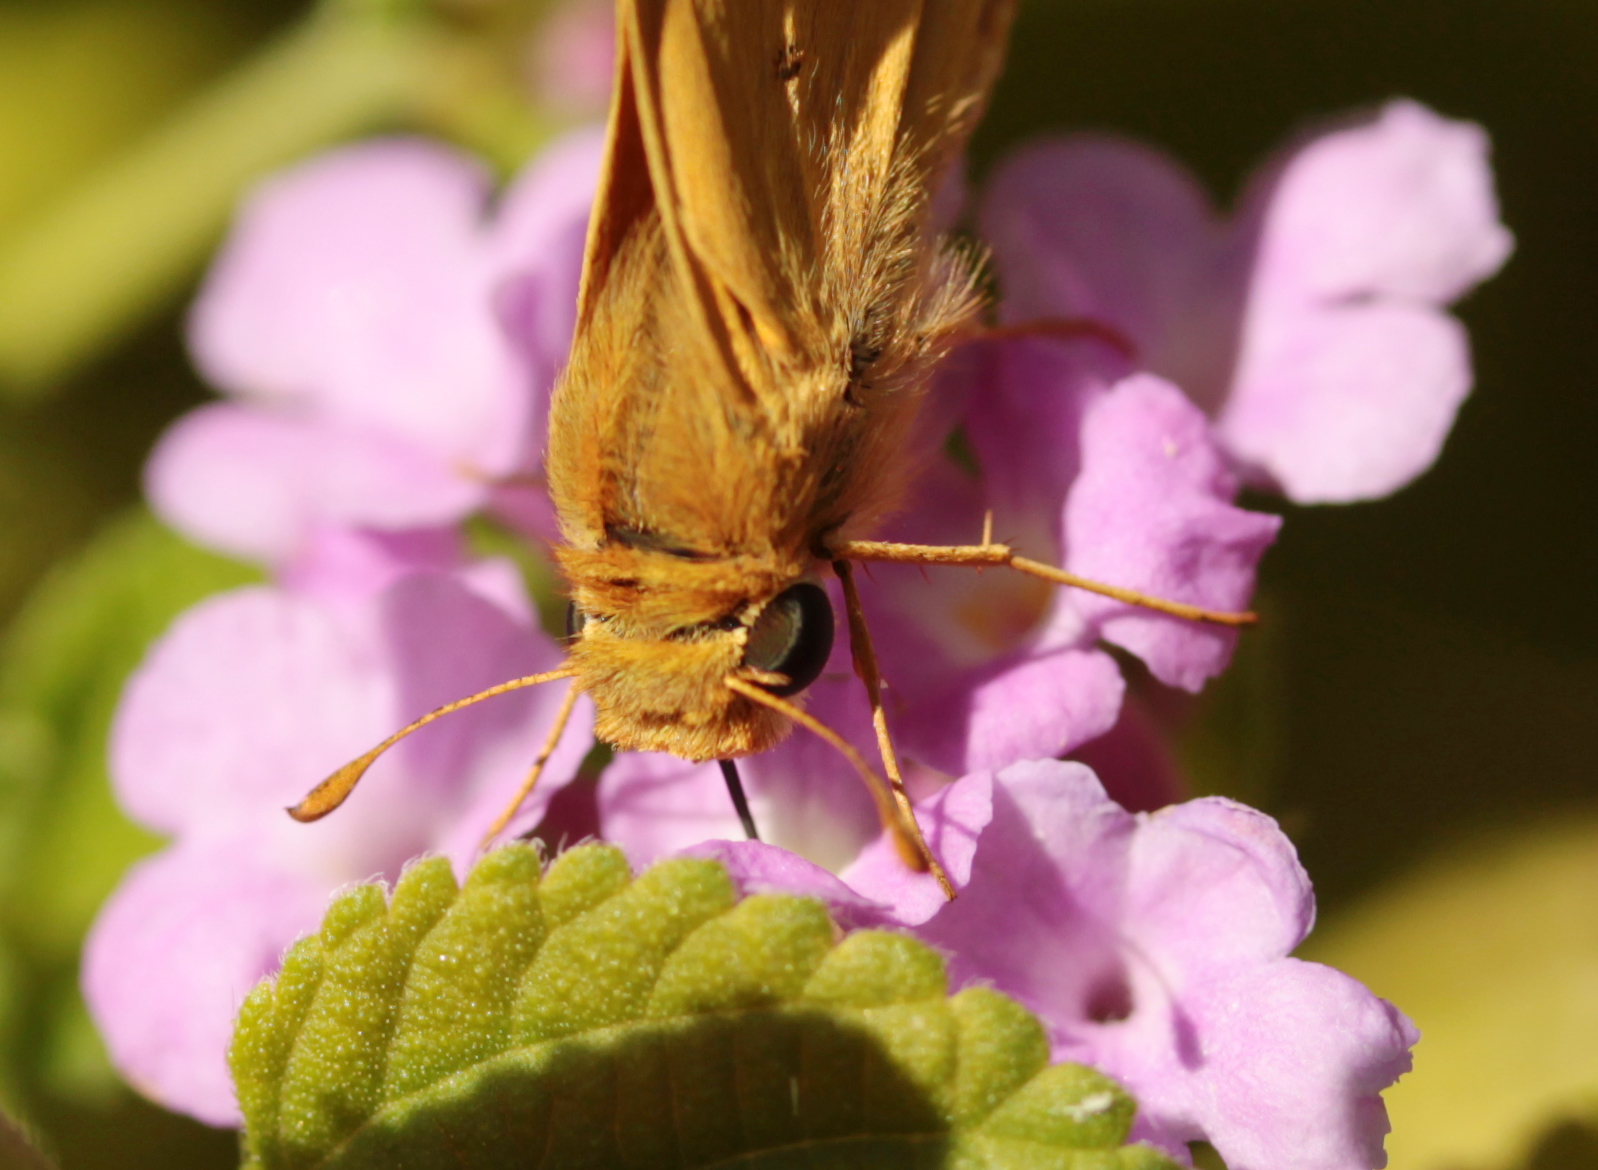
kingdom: Animalia
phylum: Arthropoda
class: Insecta
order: Lepidoptera
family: Hesperiidae
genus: Hylephila
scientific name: Hylephila phyleus
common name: Fiery skipper
